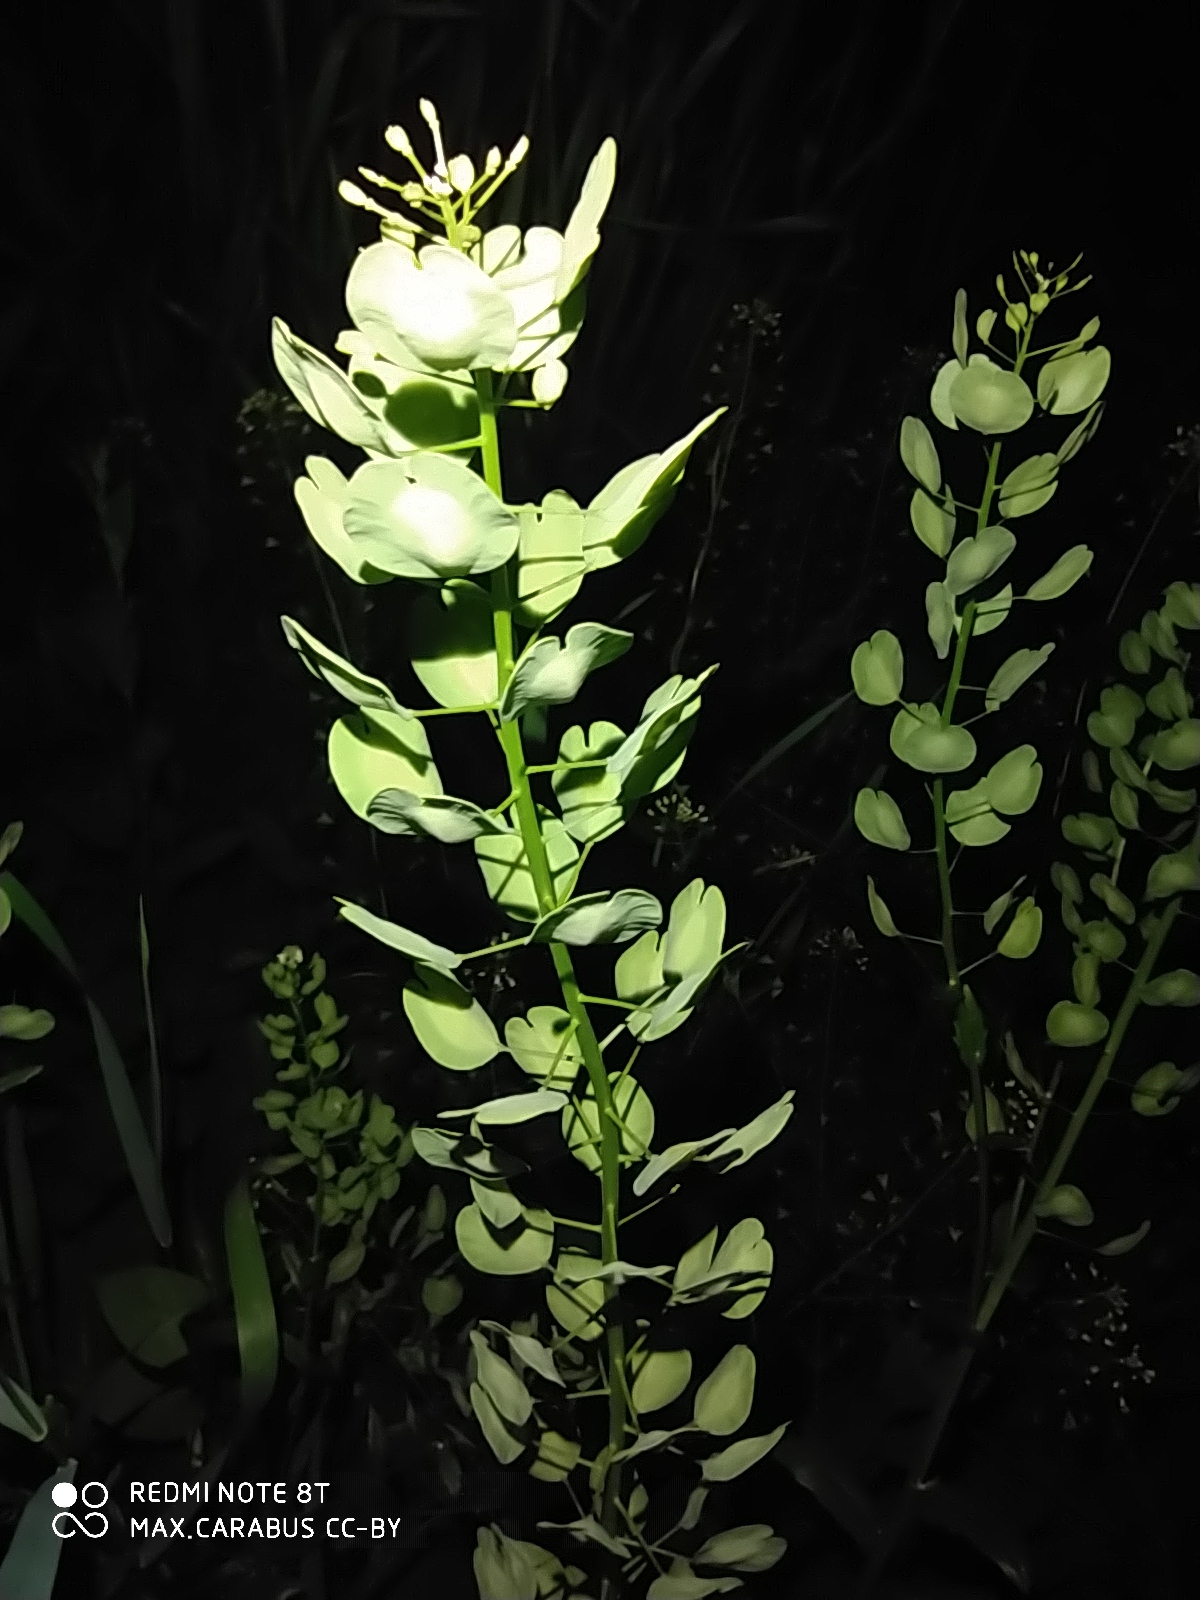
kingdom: Plantae
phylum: Tracheophyta
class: Magnoliopsida
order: Brassicales
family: Brassicaceae
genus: Thlaspi
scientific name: Thlaspi arvense
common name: Field pennycress
